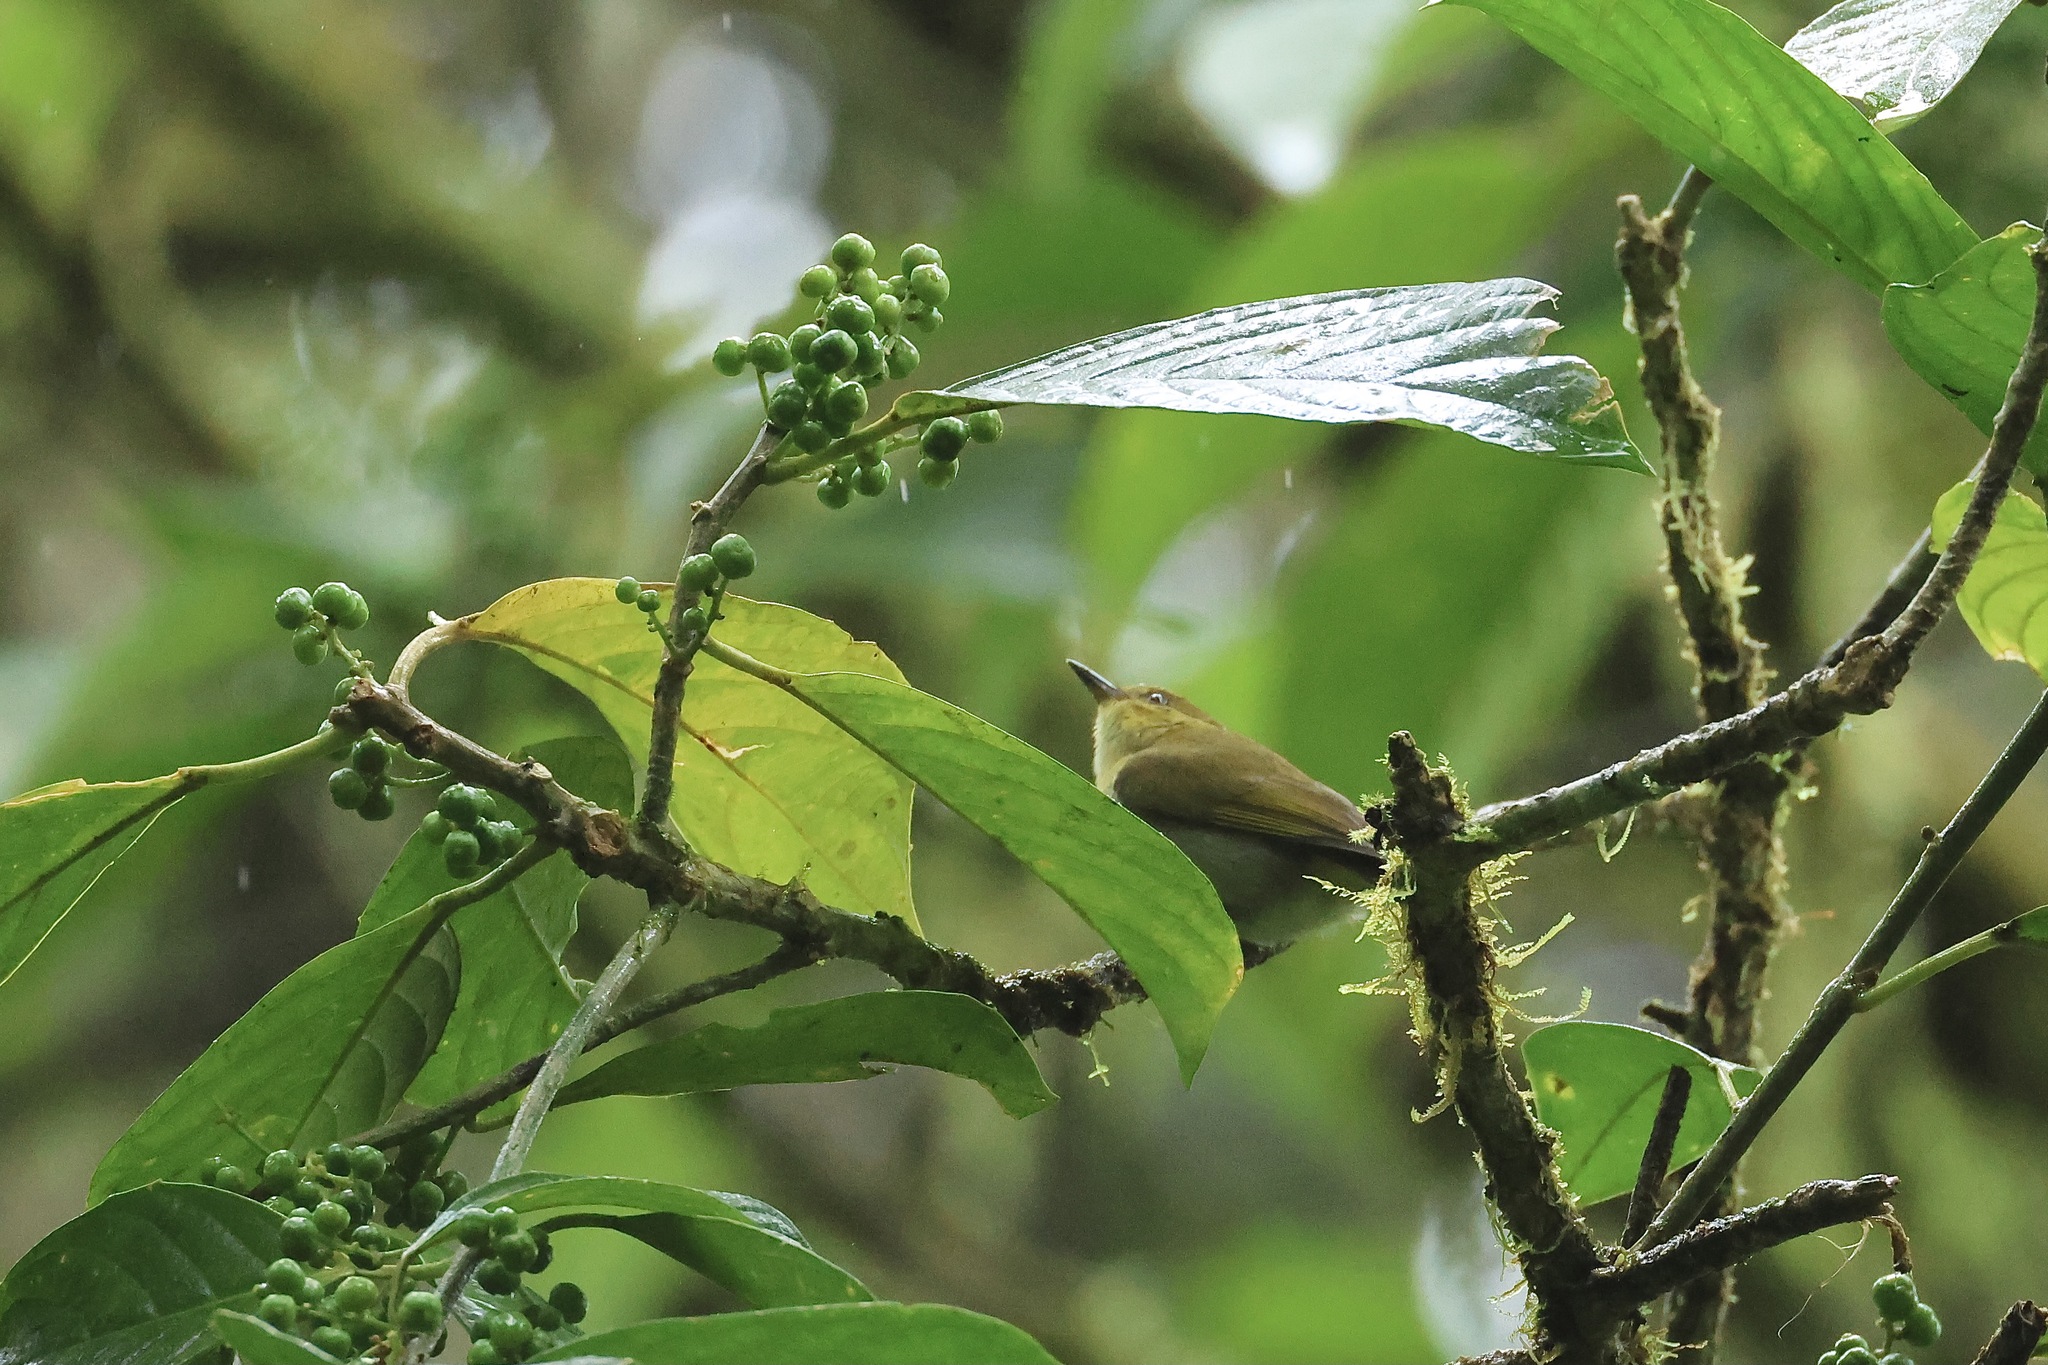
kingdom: Animalia
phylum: Chordata
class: Aves
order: Passeriformes
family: Thraupidae
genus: Chrysothlypis
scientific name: Chrysothlypis chrysomelas
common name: Black-and-yellow tanager
